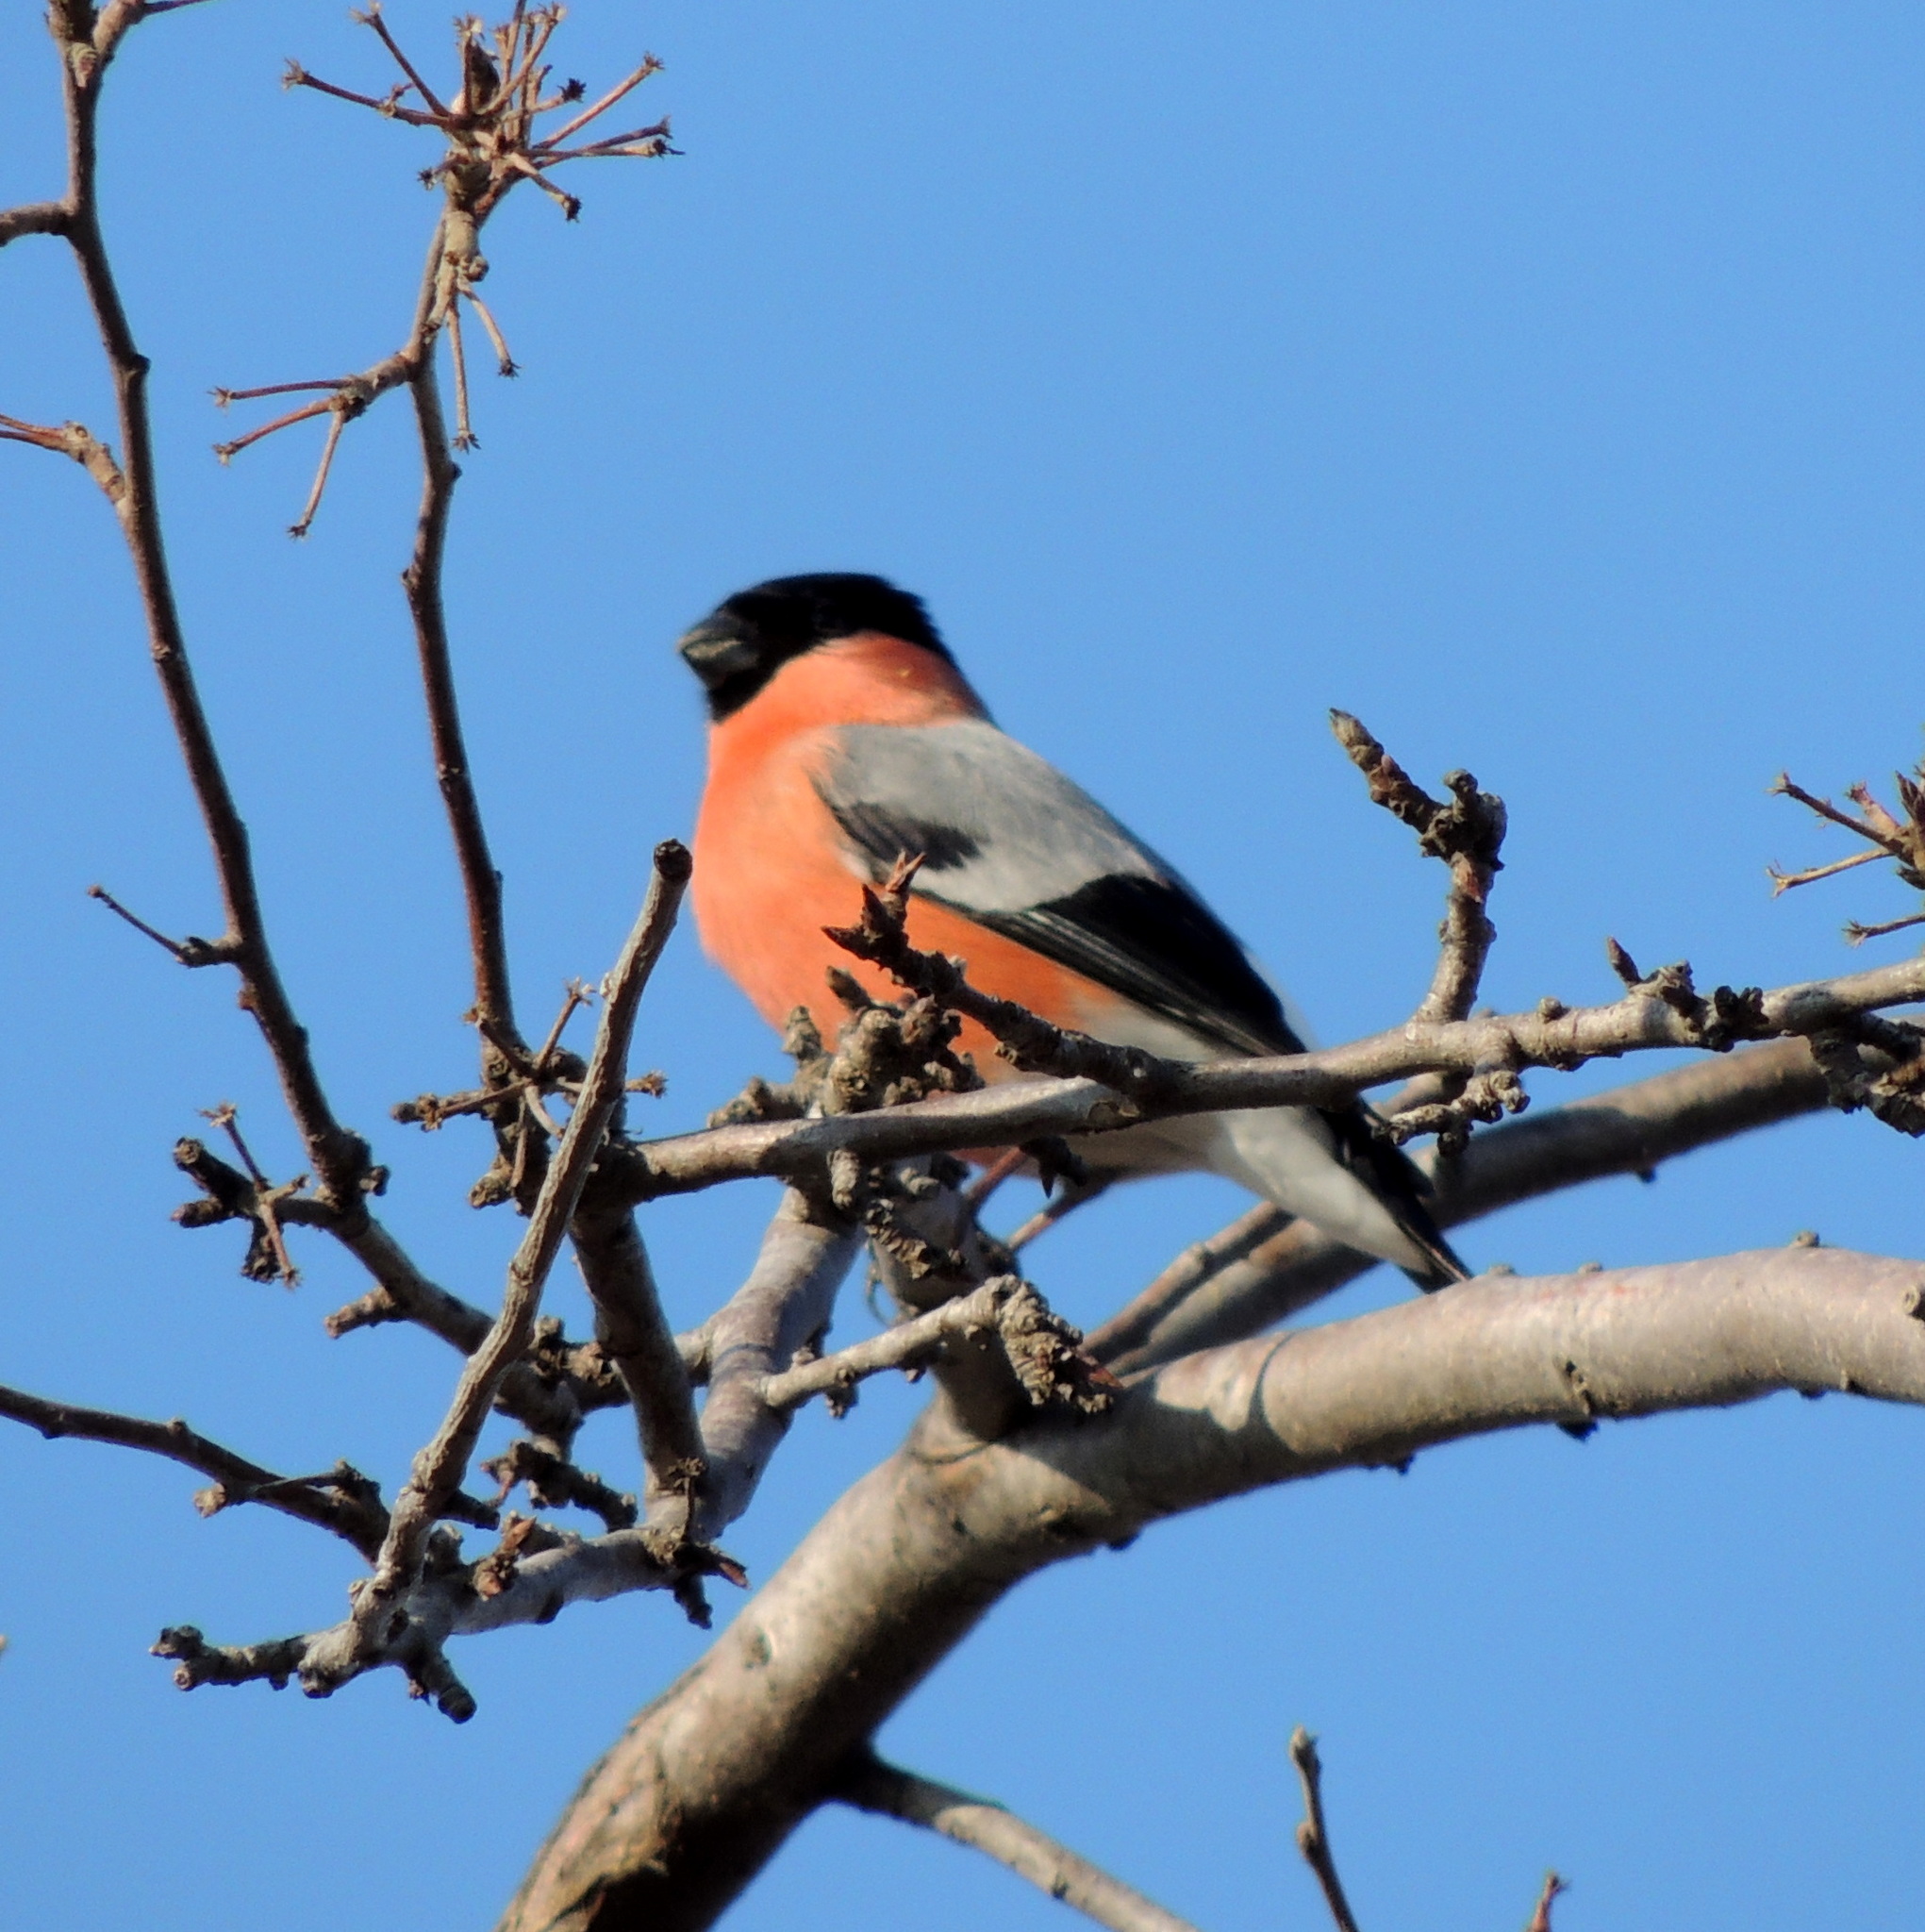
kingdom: Animalia
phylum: Chordata
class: Aves
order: Passeriformes
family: Fringillidae
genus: Pyrrhula
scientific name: Pyrrhula pyrrhula
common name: Eurasian bullfinch
